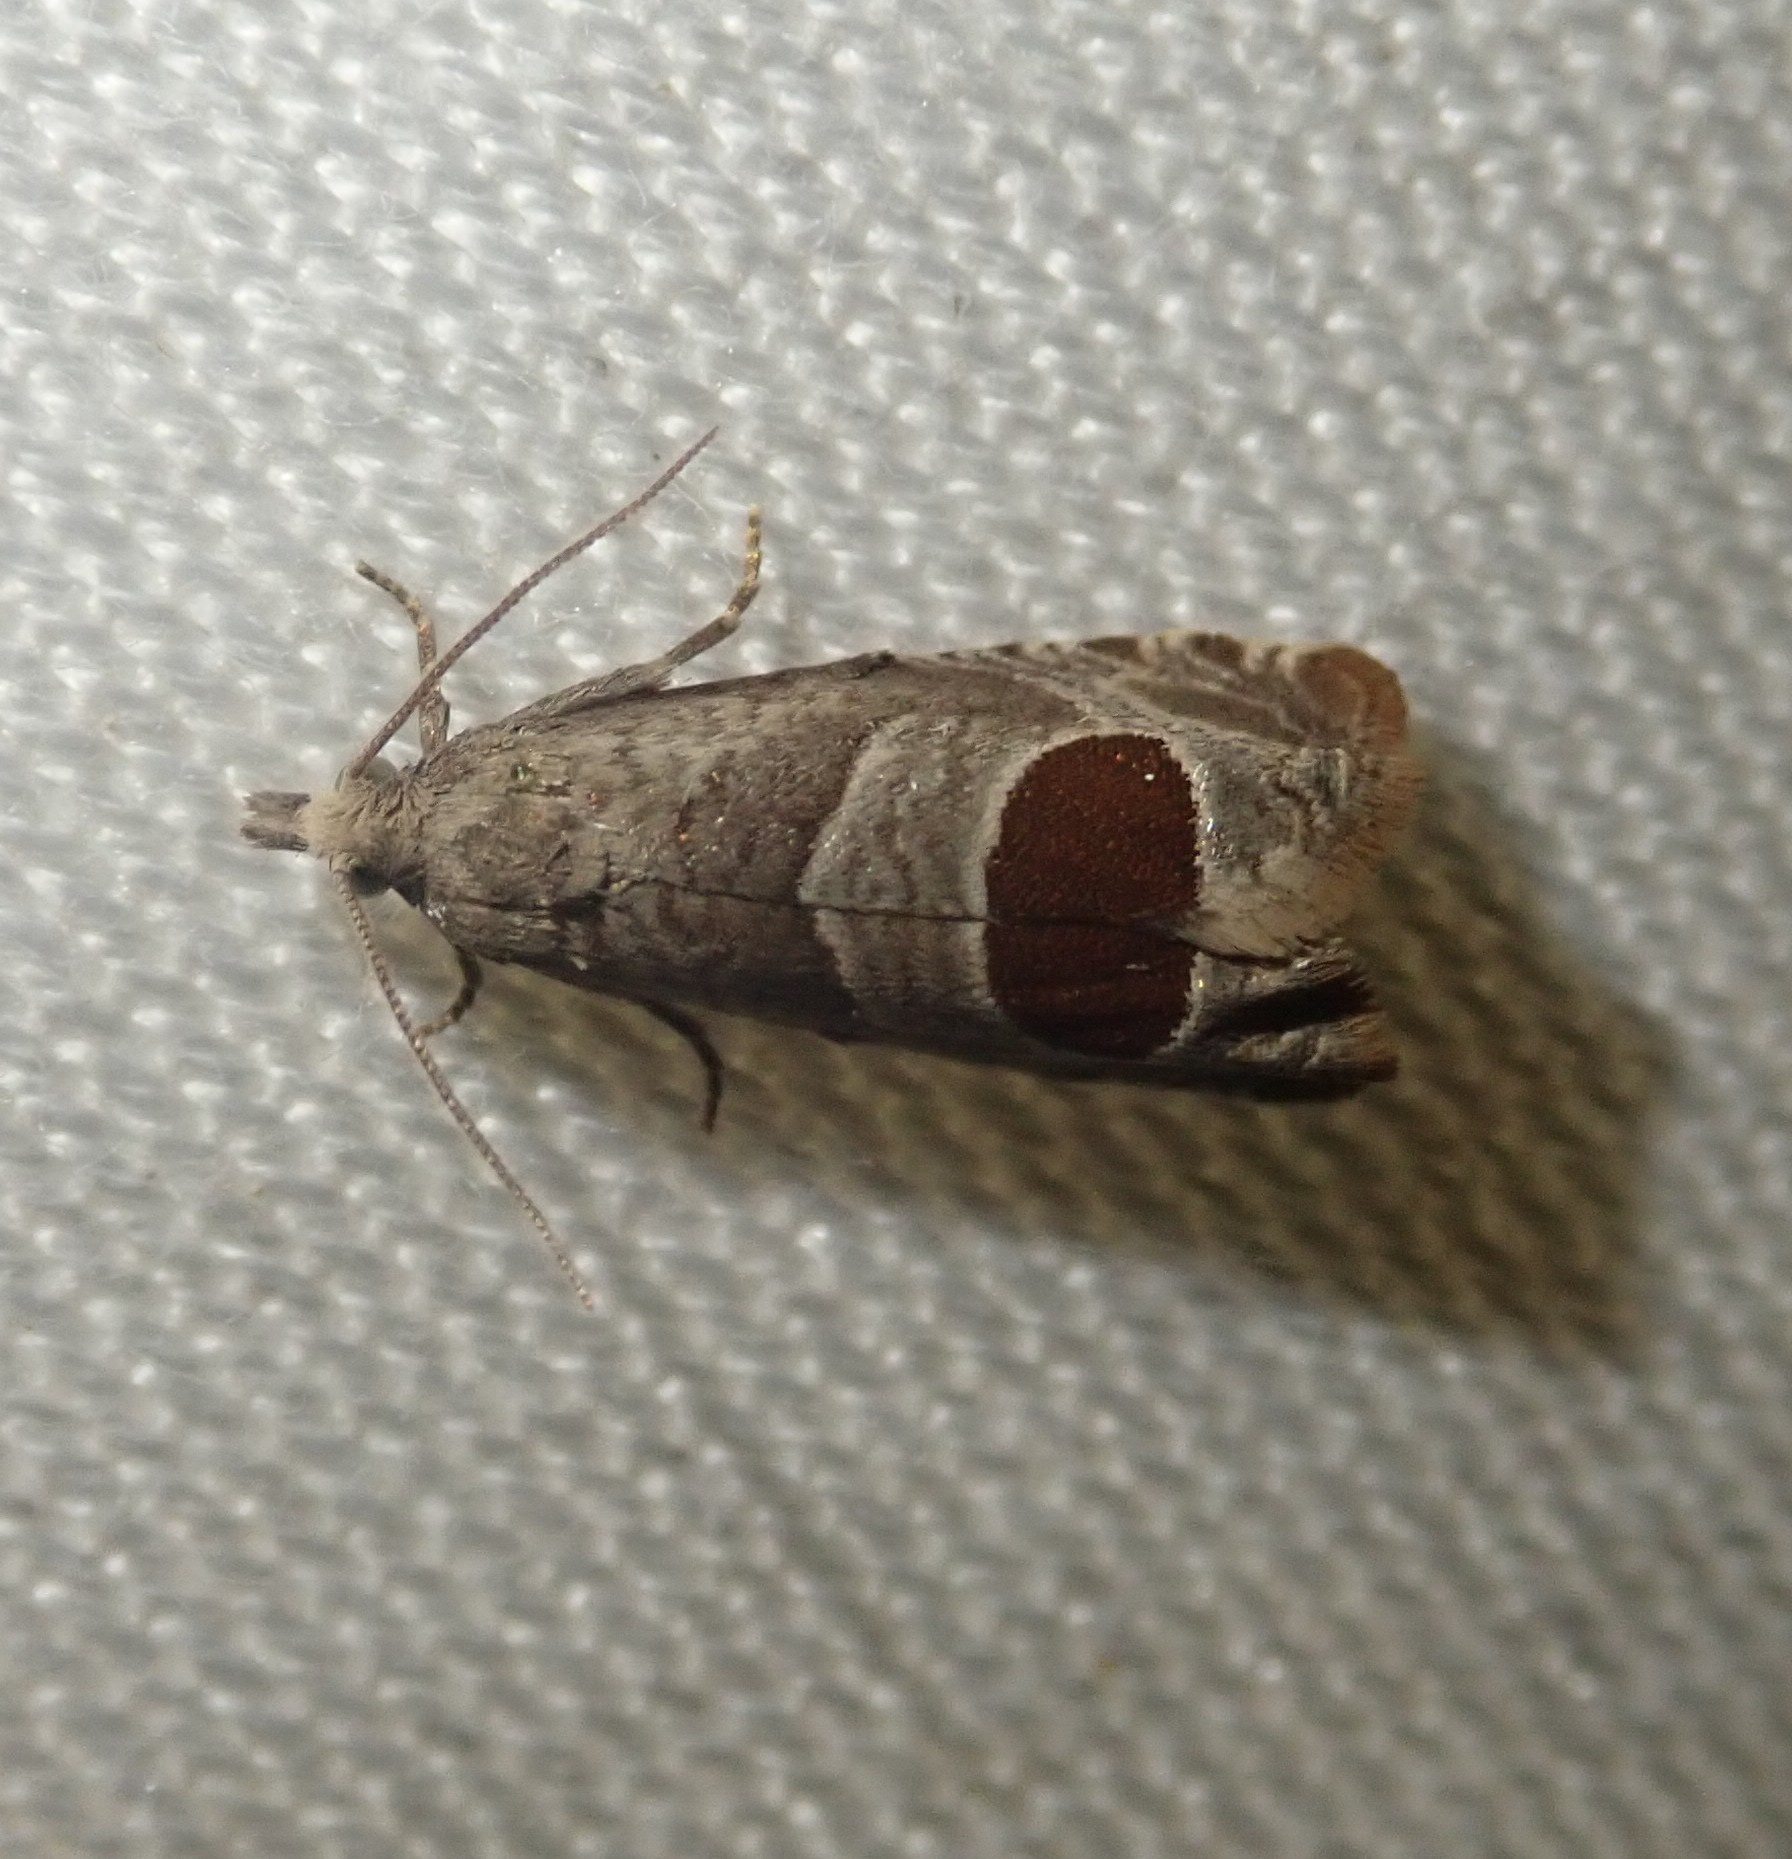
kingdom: Animalia
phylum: Arthropoda
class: Insecta
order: Lepidoptera
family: Tortricidae
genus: Notocelia
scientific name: Notocelia uddmanniana
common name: Bramble shoot moth
